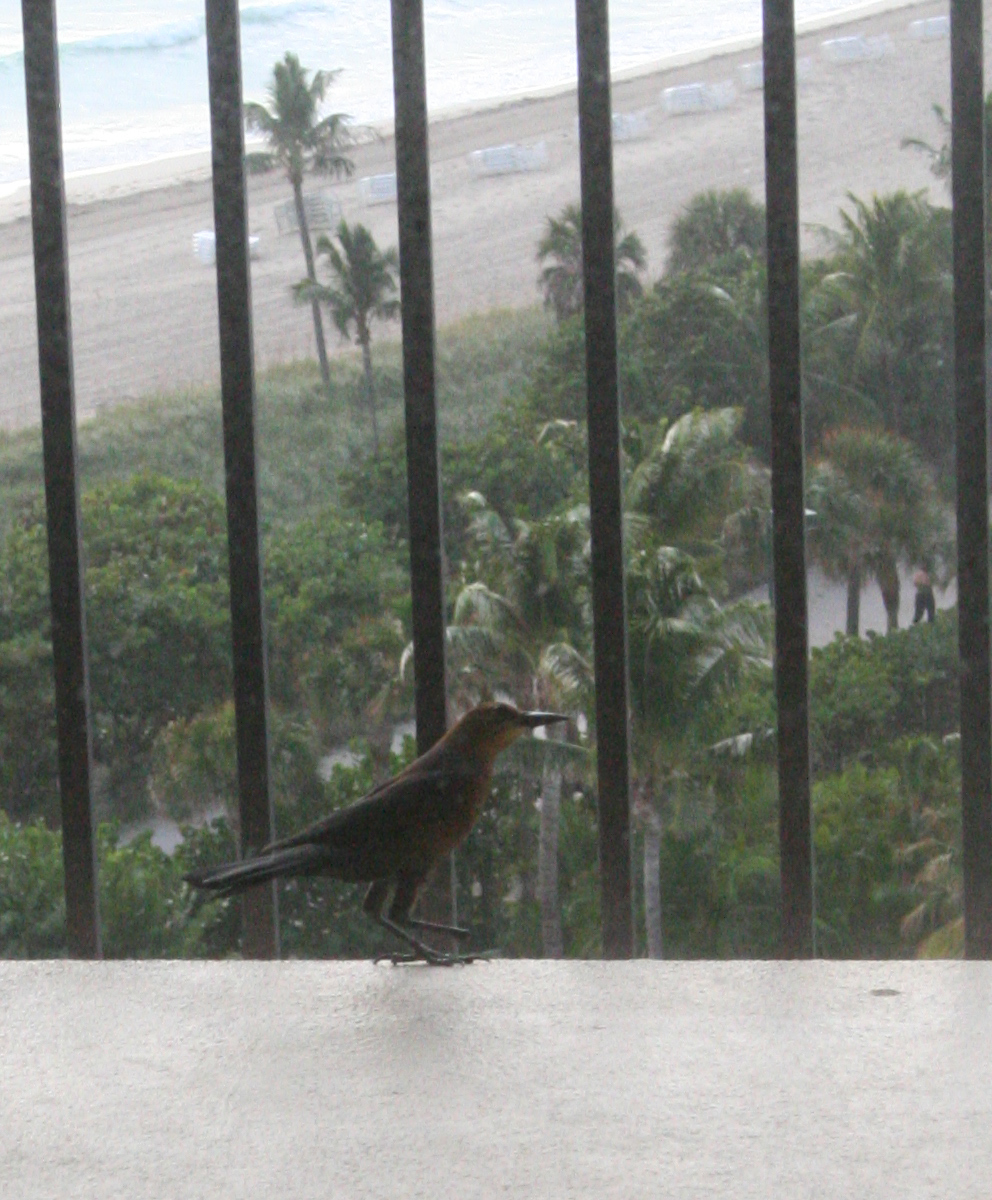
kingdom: Animalia
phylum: Chordata
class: Aves
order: Passeriformes
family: Icteridae
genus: Quiscalus
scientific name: Quiscalus major
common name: Boat-tailed grackle
